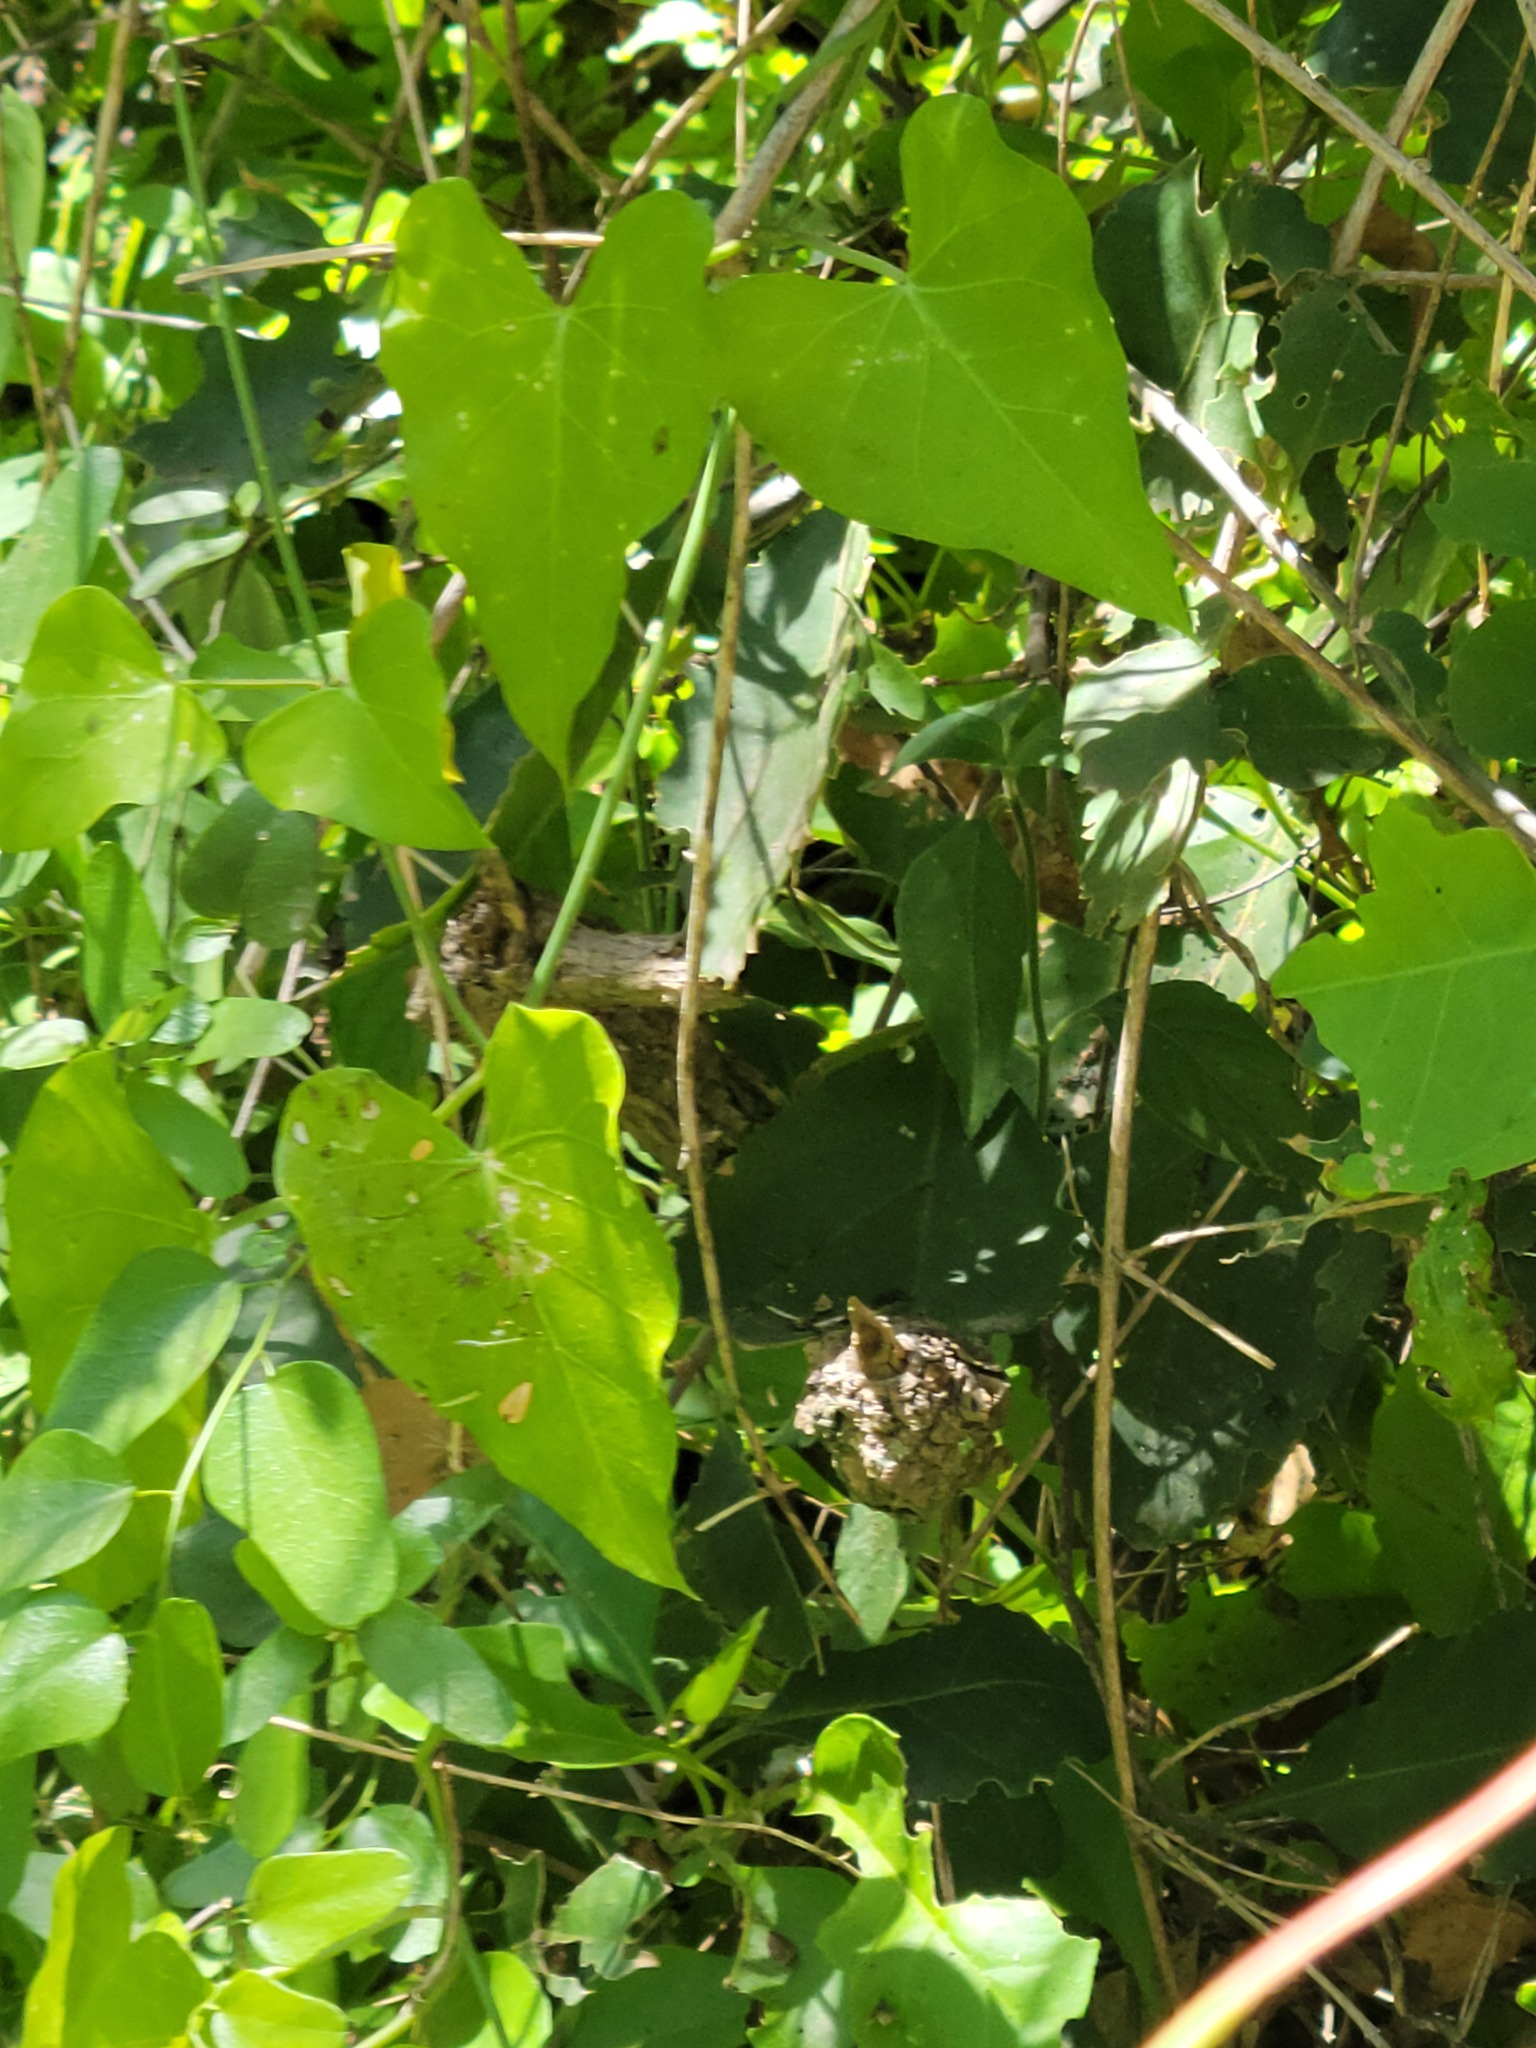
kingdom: Plantae
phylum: Tracheophyta
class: Magnoliopsida
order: Gentianales
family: Apocynaceae
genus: Funastrum
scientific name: Funastrum cynanchoides
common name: Climbing-milkweed
